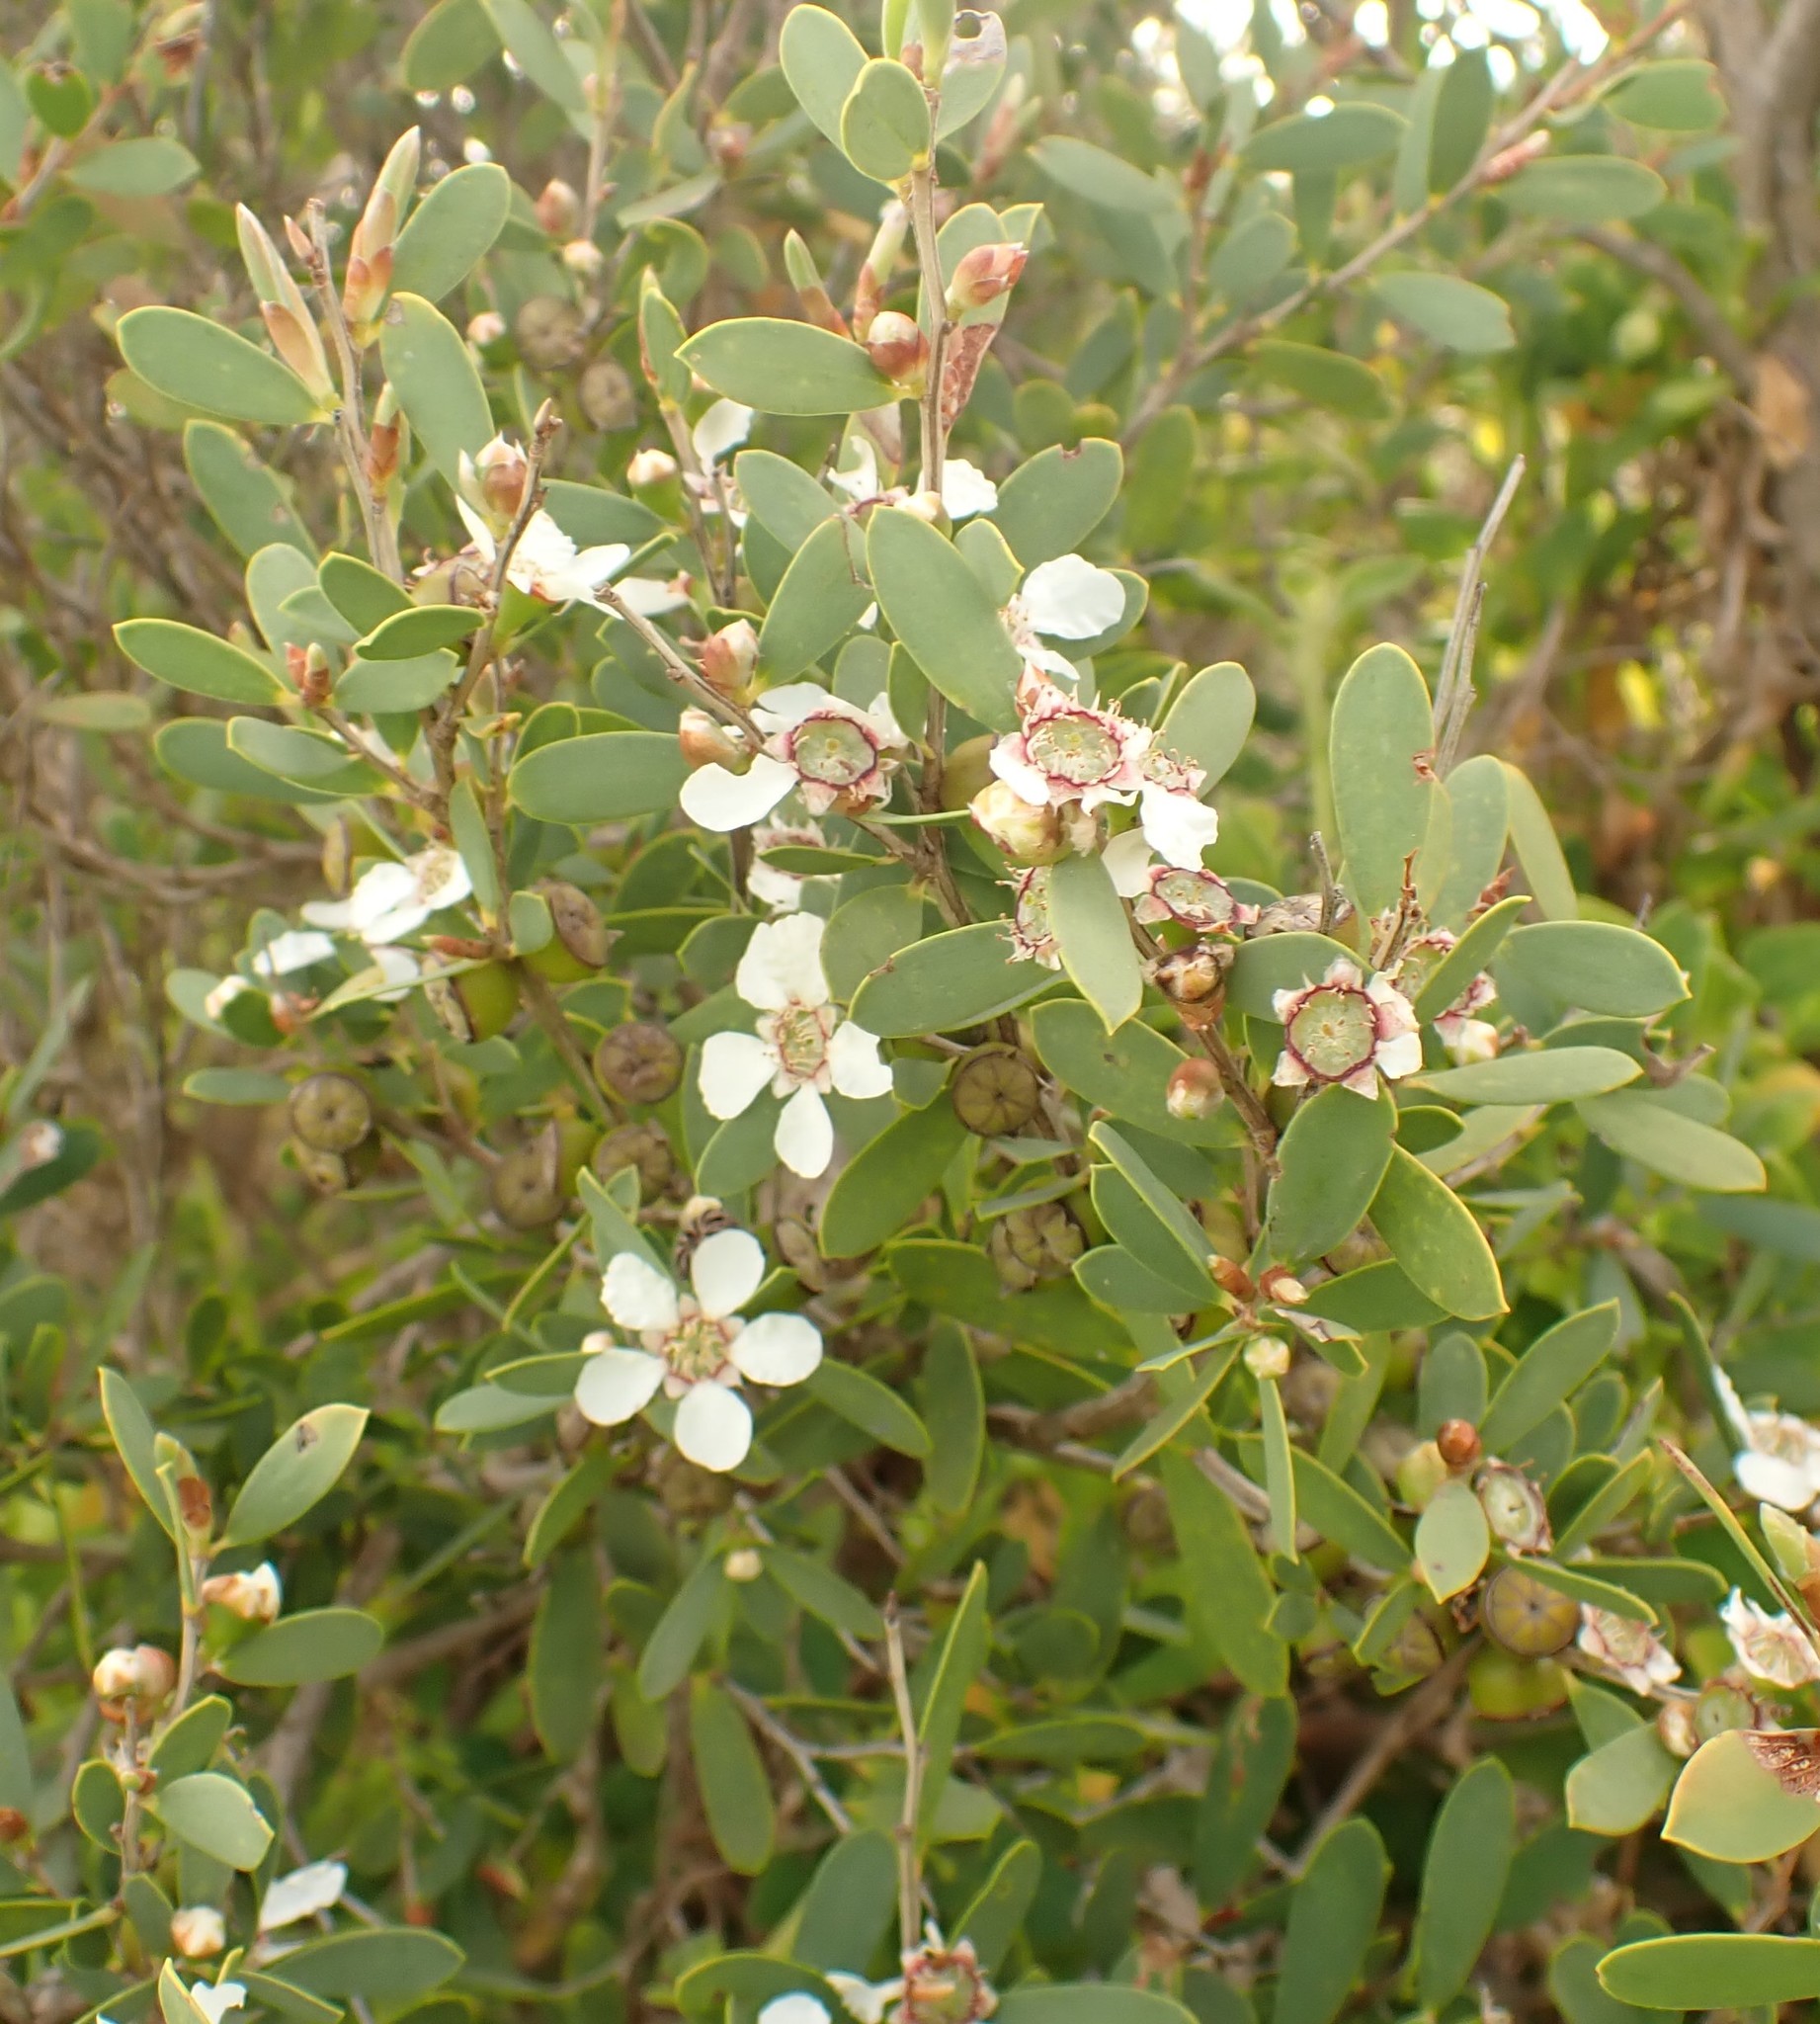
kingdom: Plantae
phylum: Tracheophyta
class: Magnoliopsida
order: Myrtales
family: Myrtaceae
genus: Leptospermum
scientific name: Leptospermum laevigatum
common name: Australian teatree
